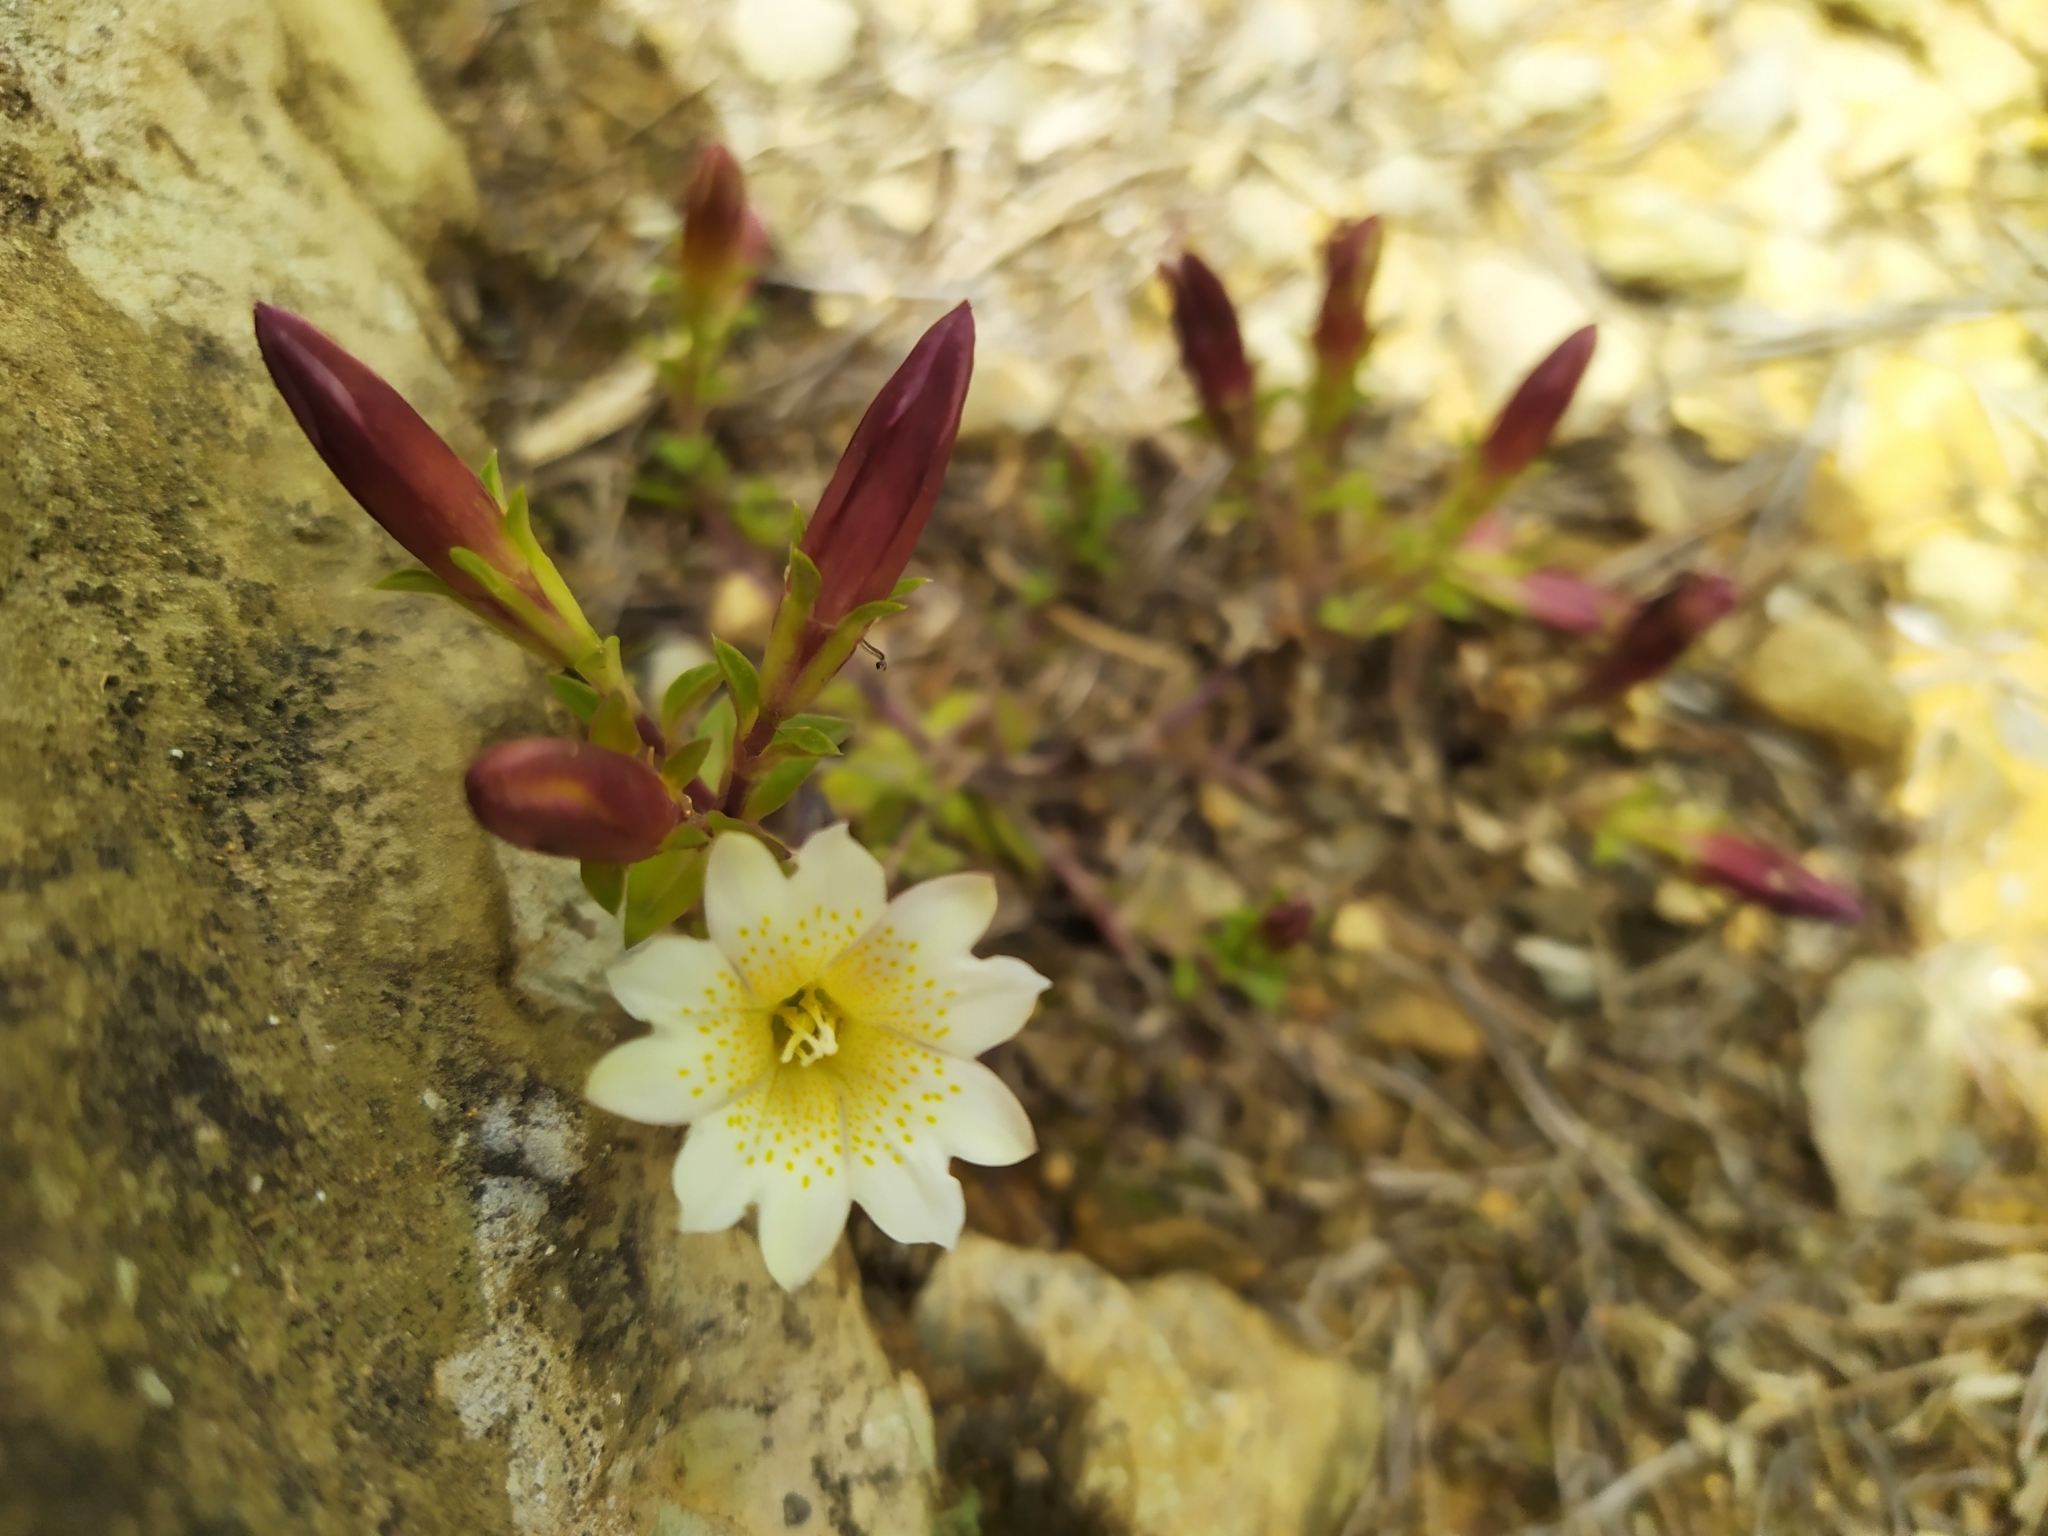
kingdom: Plantae
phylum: Tracheophyta
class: Magnoliopsida
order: Gentianales
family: Gentianaceae
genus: Gentiana
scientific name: Gentiana scabrida
